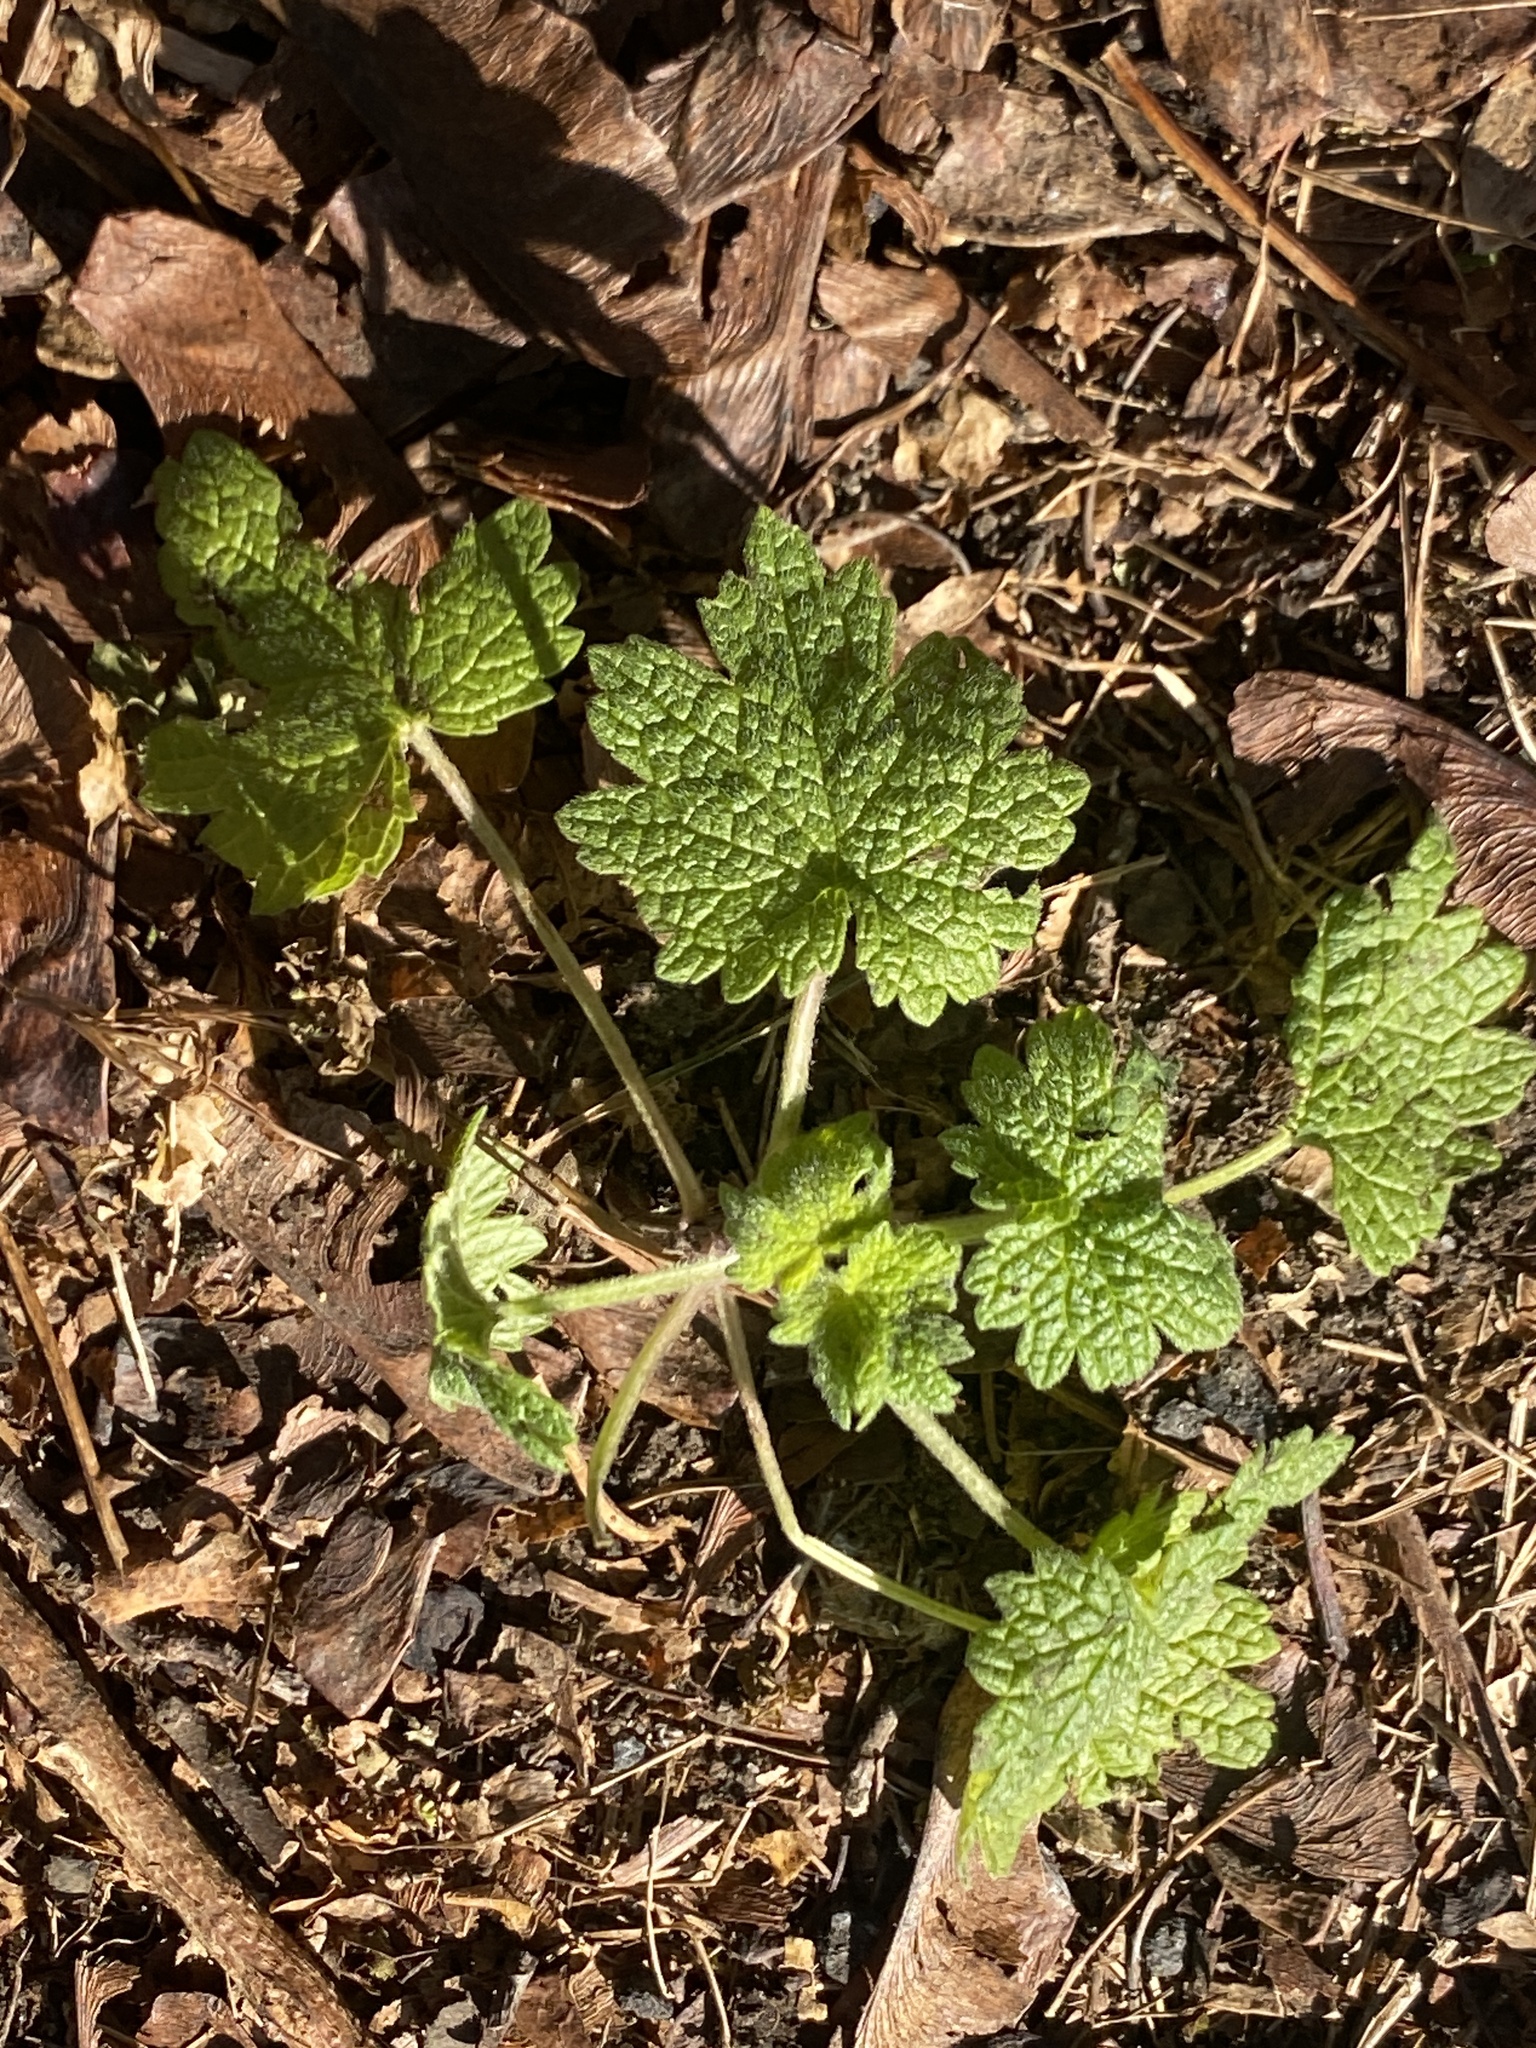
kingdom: Plantae
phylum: Tracheophyta
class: Magnoliopsida
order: Lamiales
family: Lamiaceae
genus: Leonurus
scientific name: Leonurus cardiaca
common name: Motherwort
